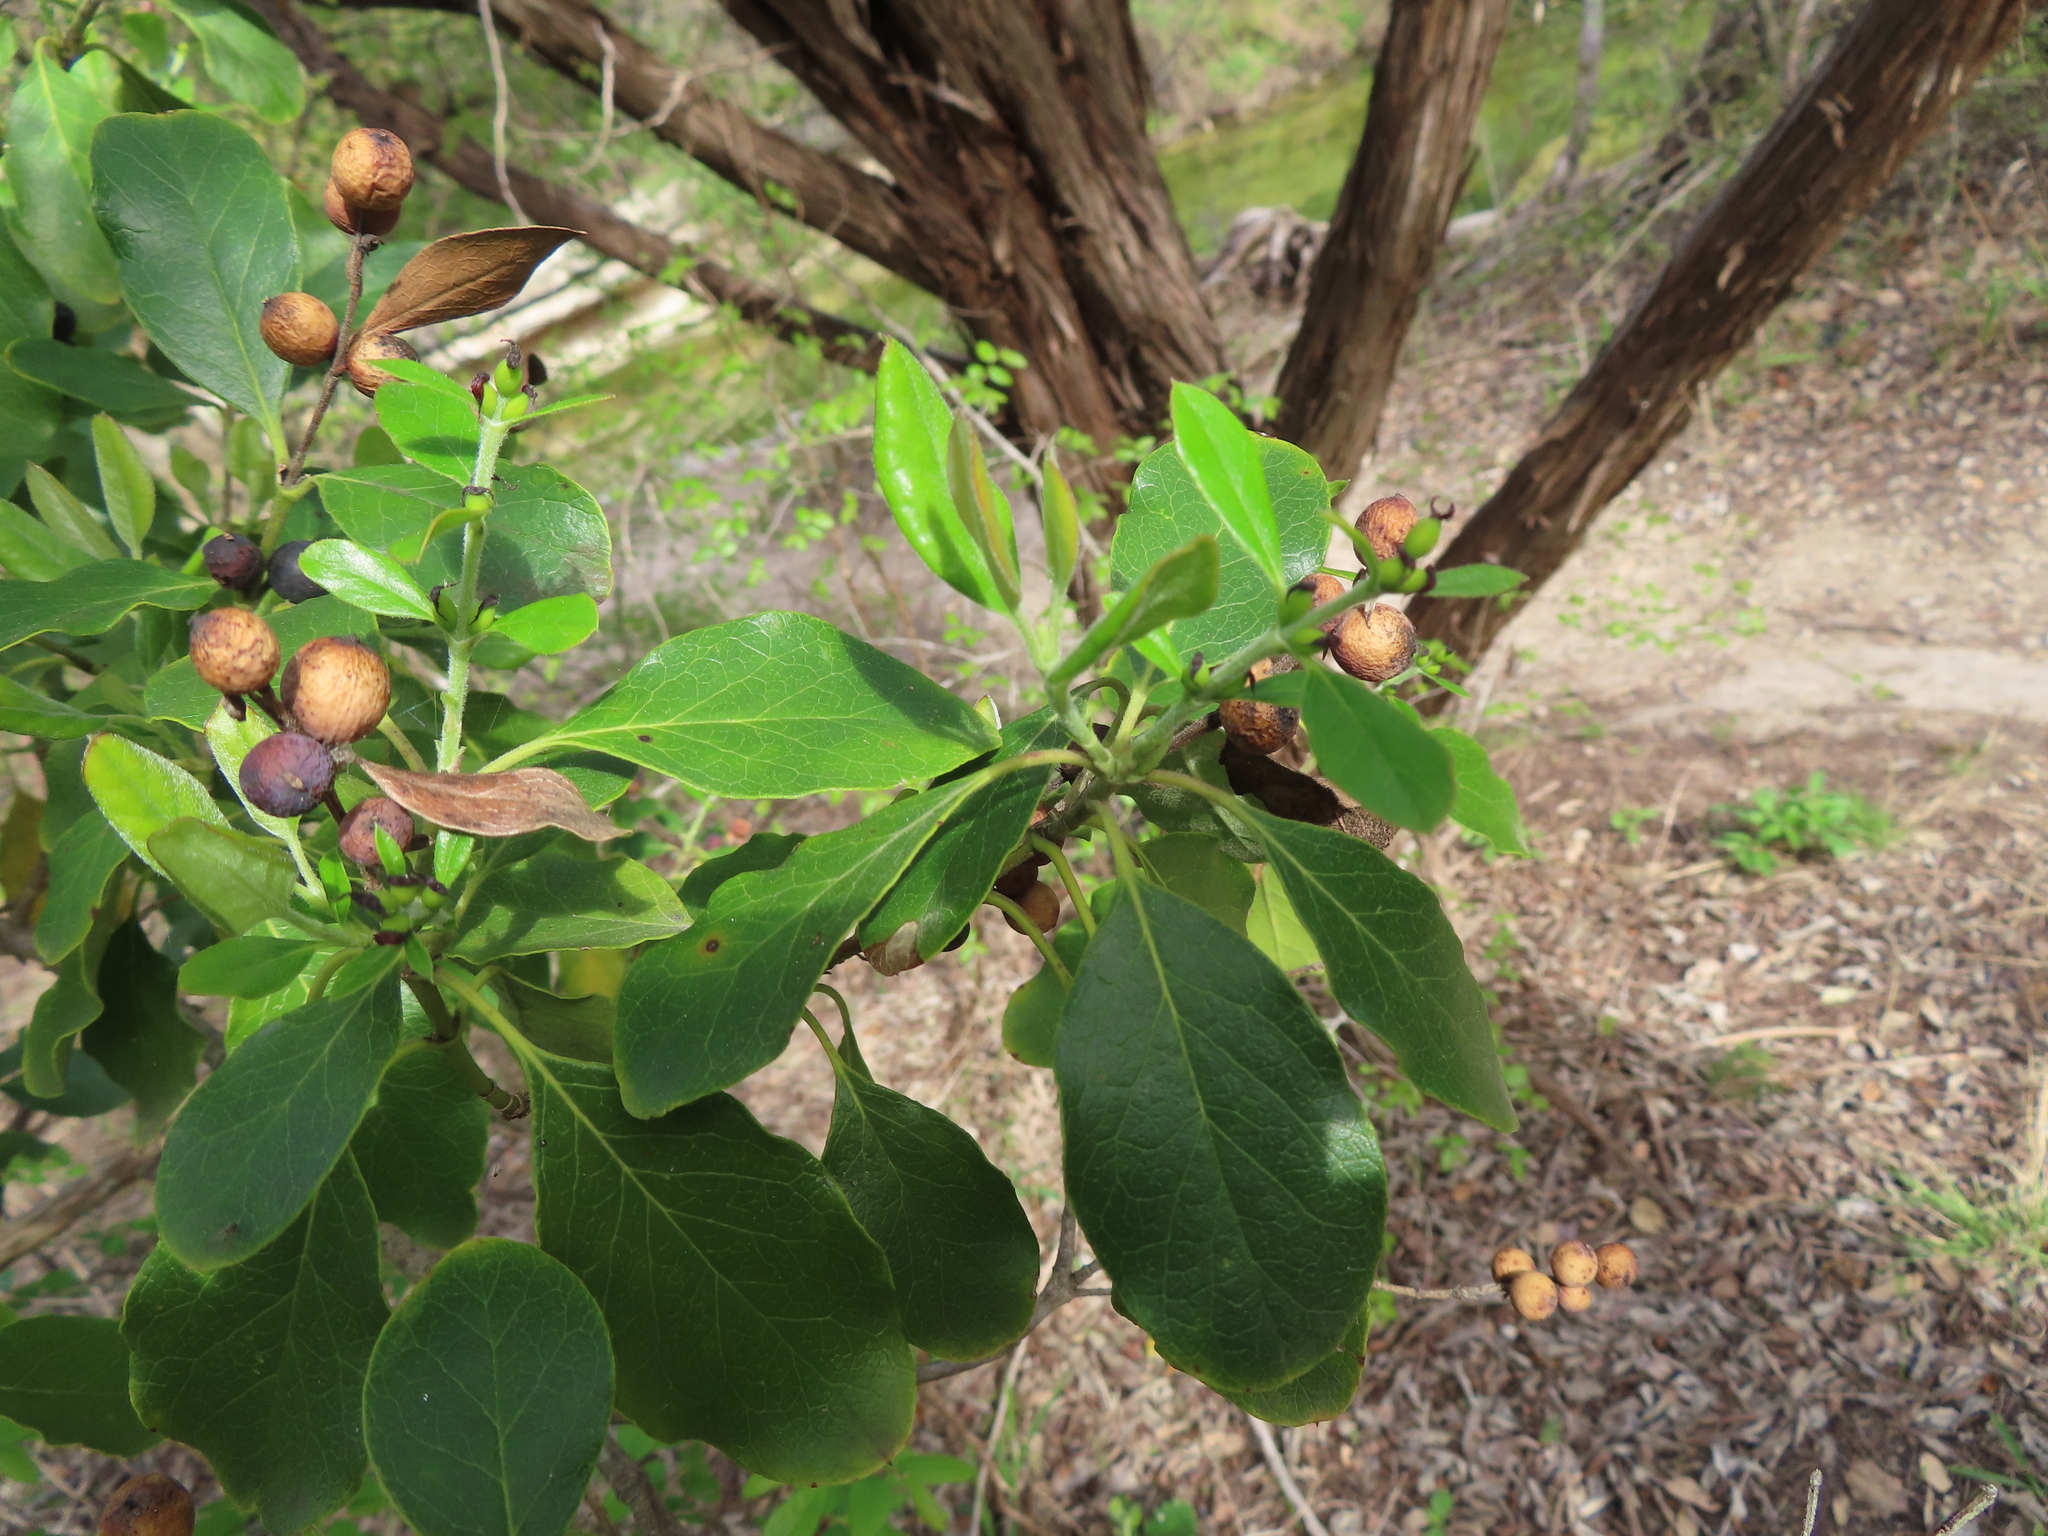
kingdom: Plantae
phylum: Tracheophyta
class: Magnoliopsida
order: Garryales
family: Garryaceae
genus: Garrya
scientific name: Garrya lindheimeri
